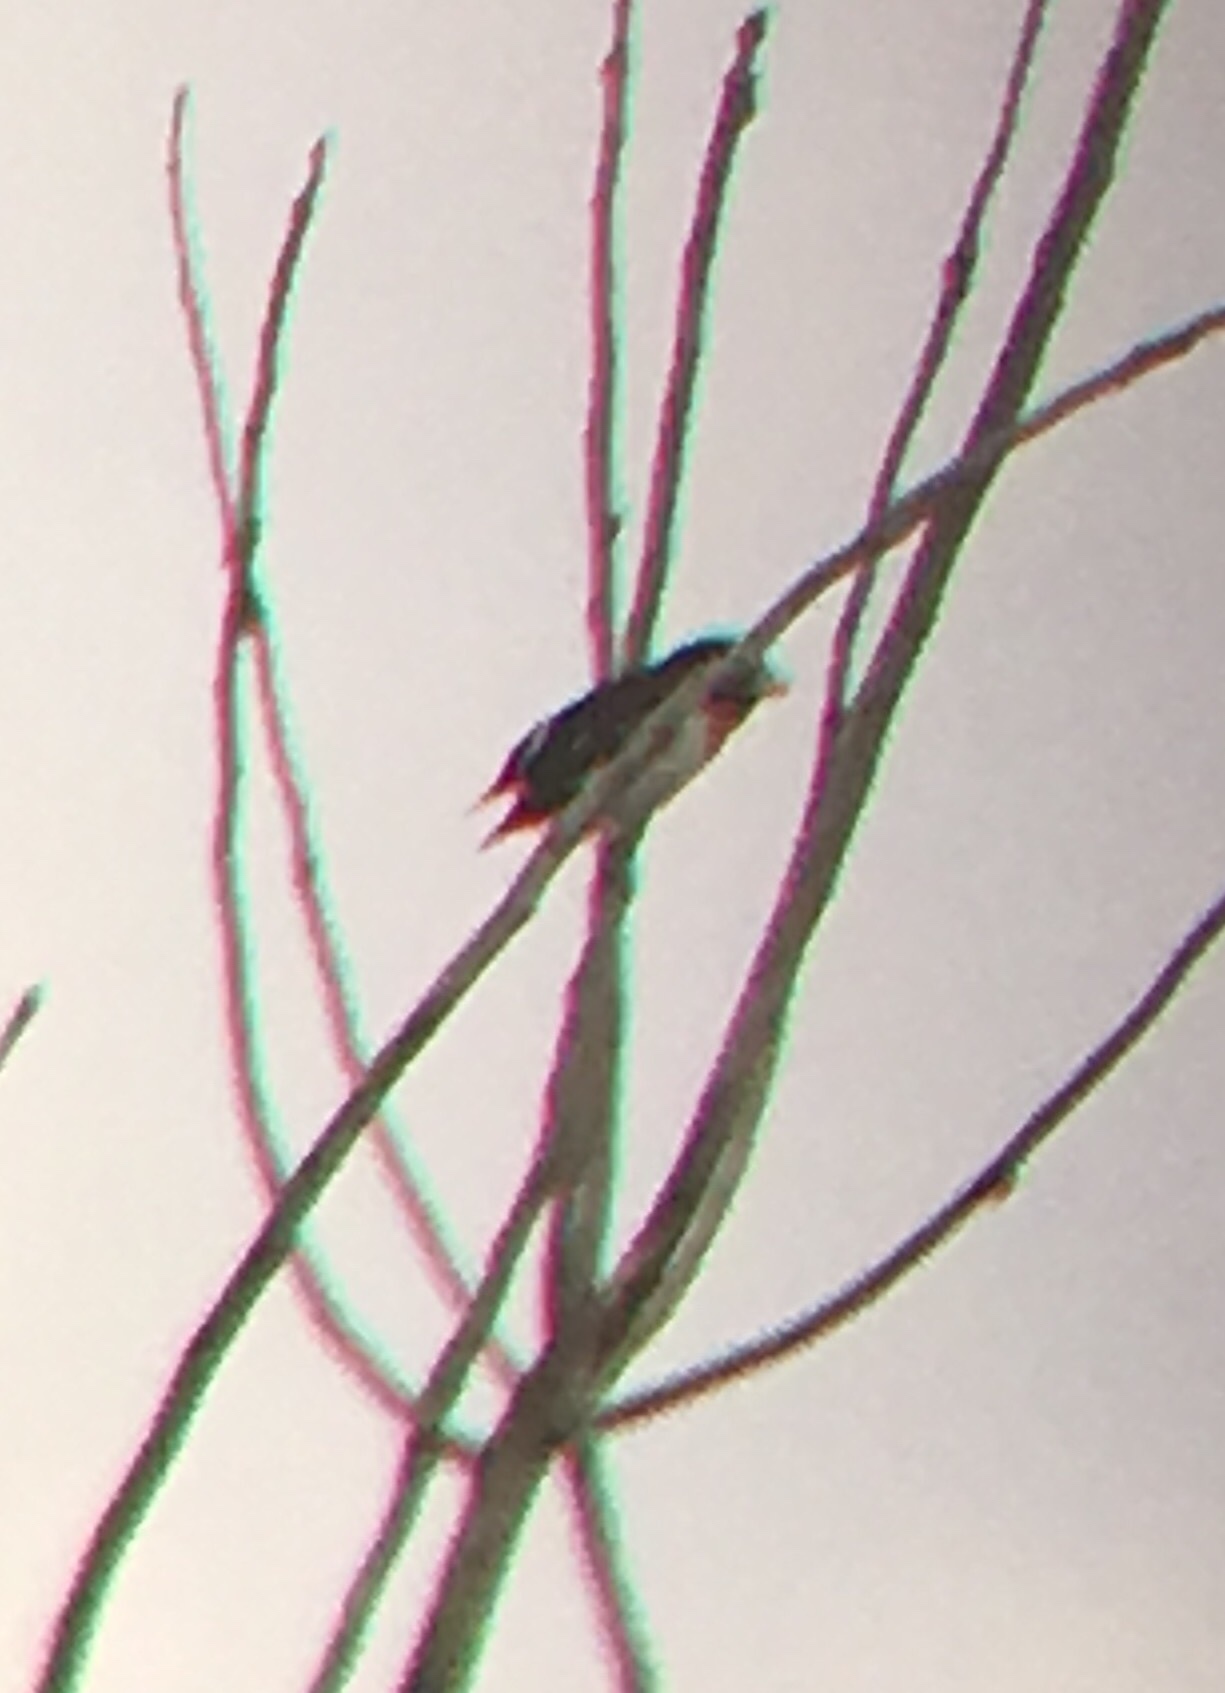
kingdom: Animalia
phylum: Chordata
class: Aves
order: Passeriformes
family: Cardinalidae
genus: Pheucticus
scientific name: Pheucticus ludovicianus
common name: Rose-breasted grosbeak
